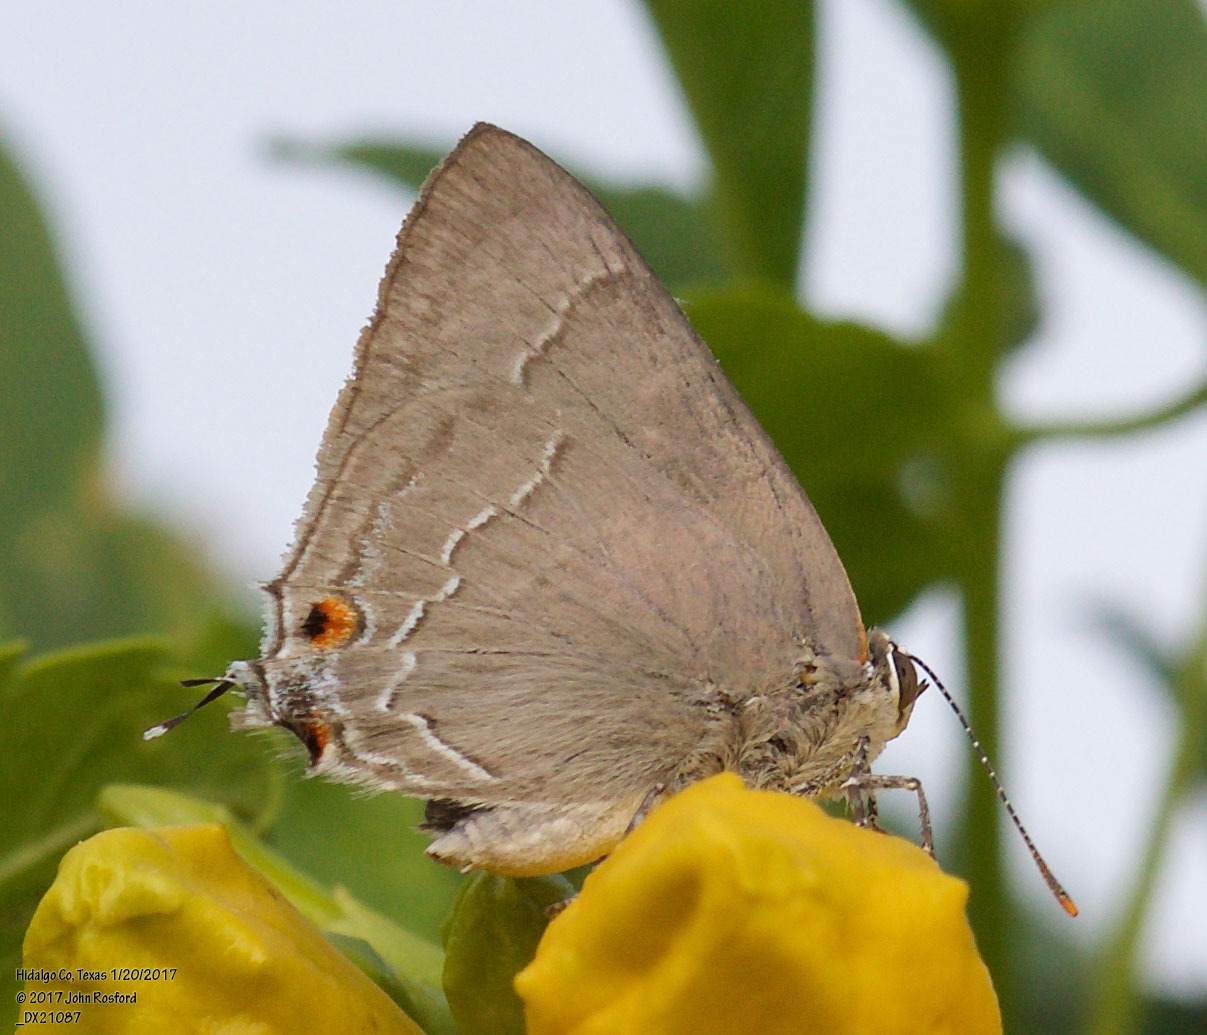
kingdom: Animalia
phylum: Arthropoda
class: Insecta
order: Lepidoptera
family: Lycaenidae
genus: Thecla
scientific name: Thecla marius
